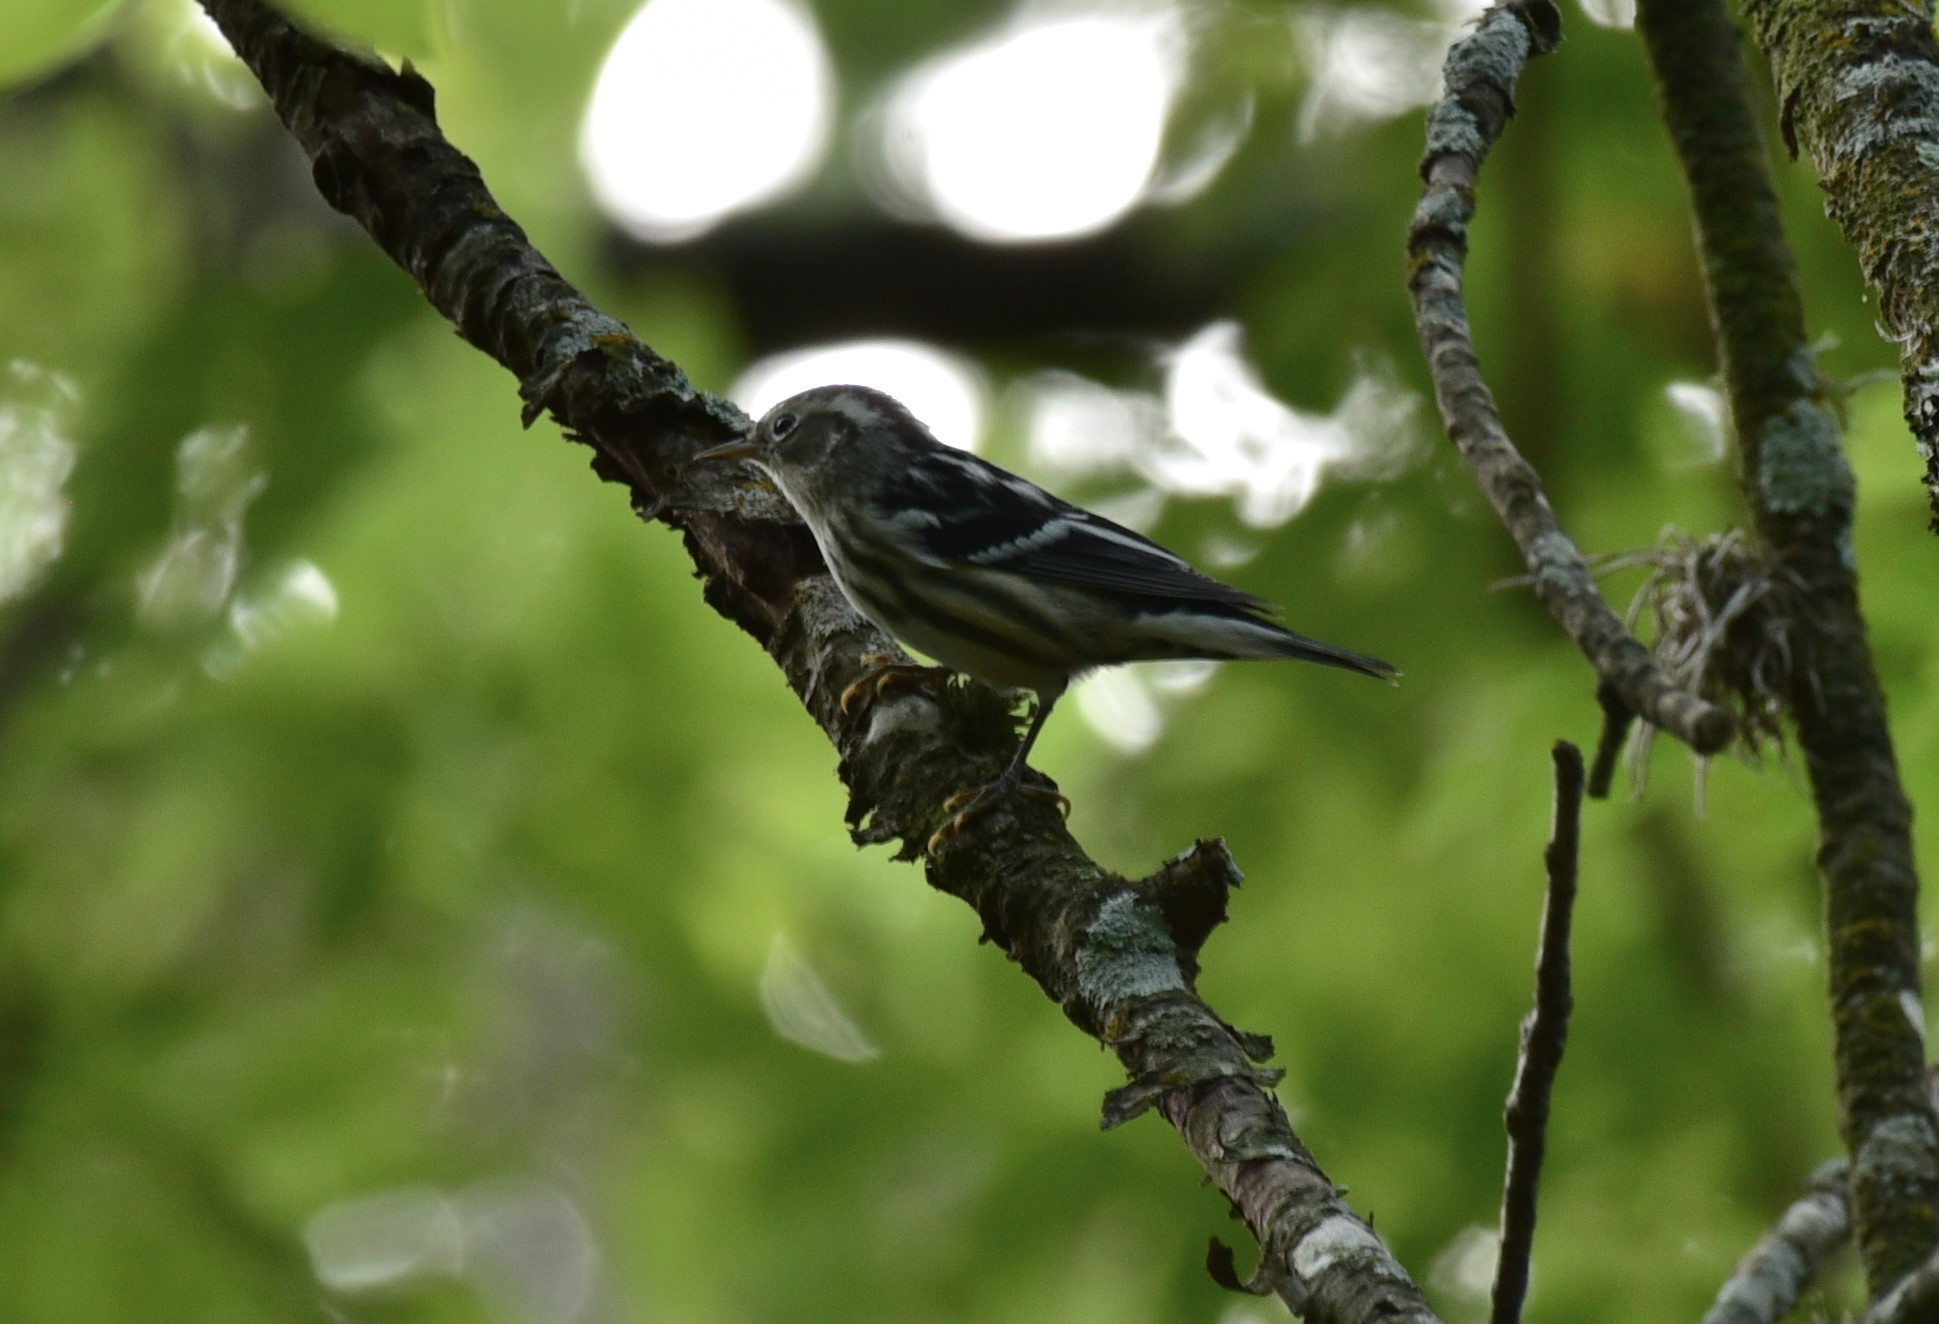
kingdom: Animalia
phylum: Chordata
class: Aves
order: Passeriformes
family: Parulidae
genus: Mniotilta
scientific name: Mniotilta varia
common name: Black-and-white warbler
